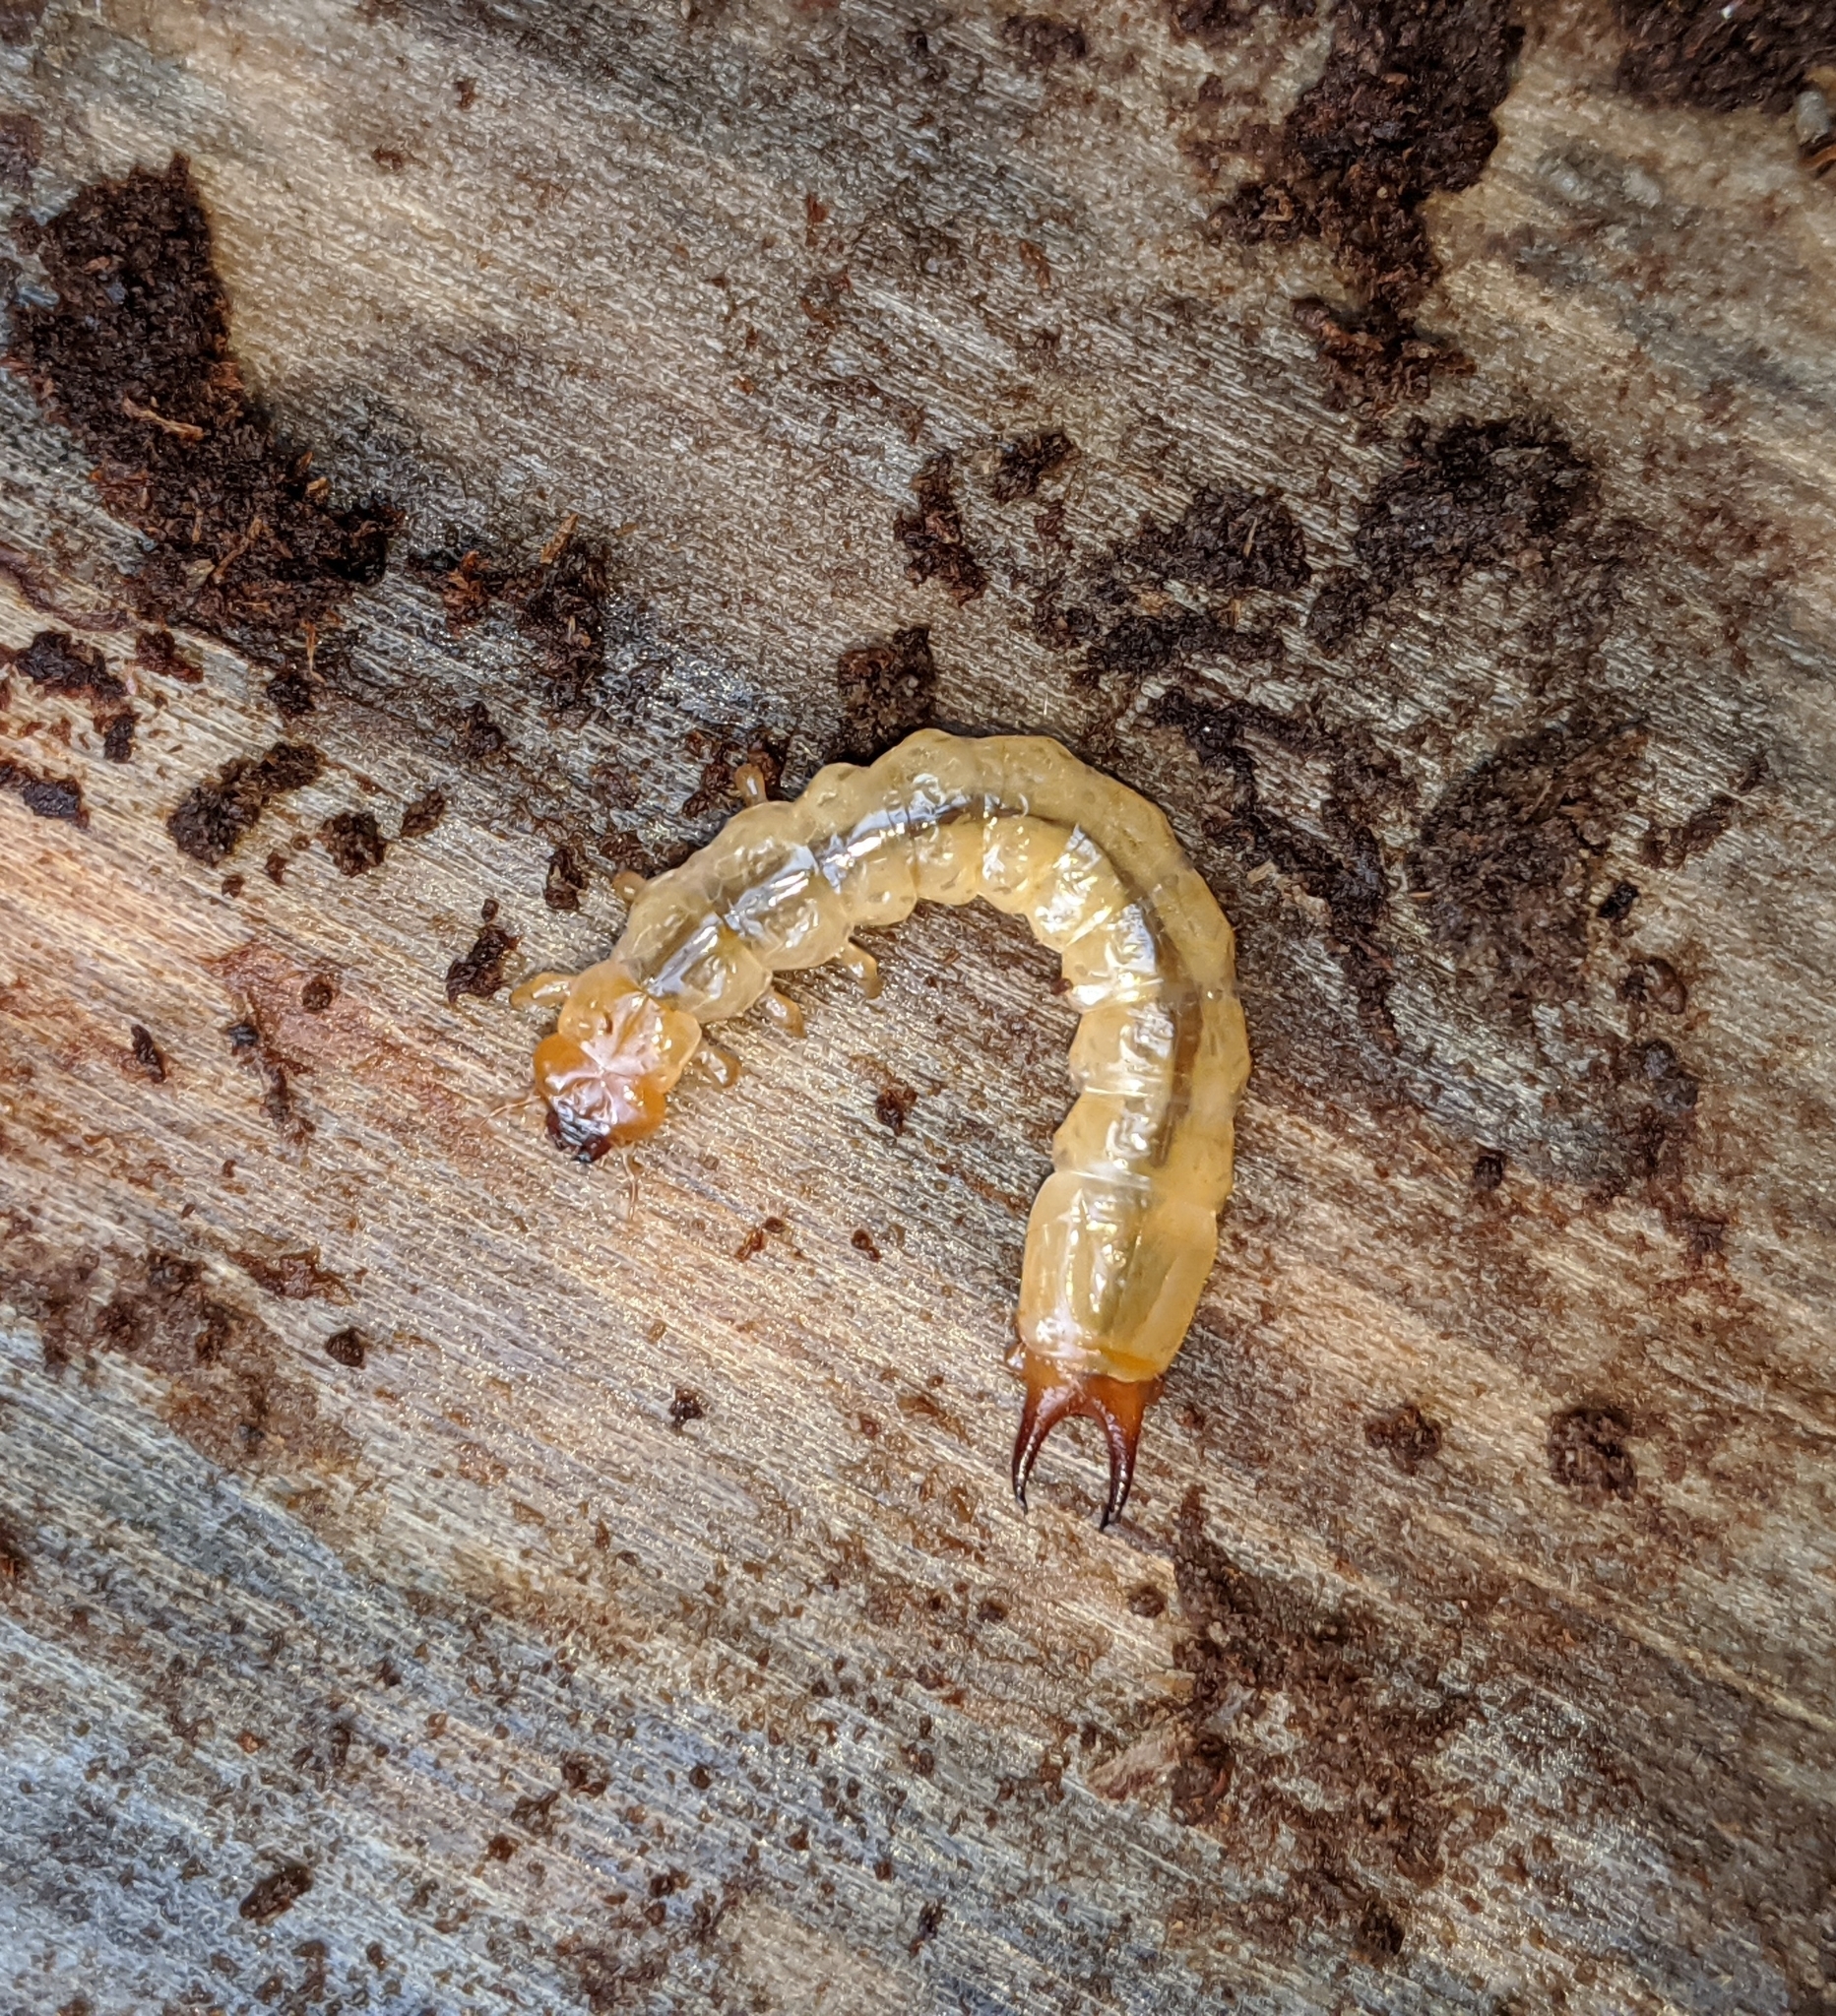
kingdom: Animalia
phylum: Arthropoda
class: Insecta
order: Coleoptera
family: Pyrochroidae
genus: Dendroides
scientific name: Dendroides ephemeroides
